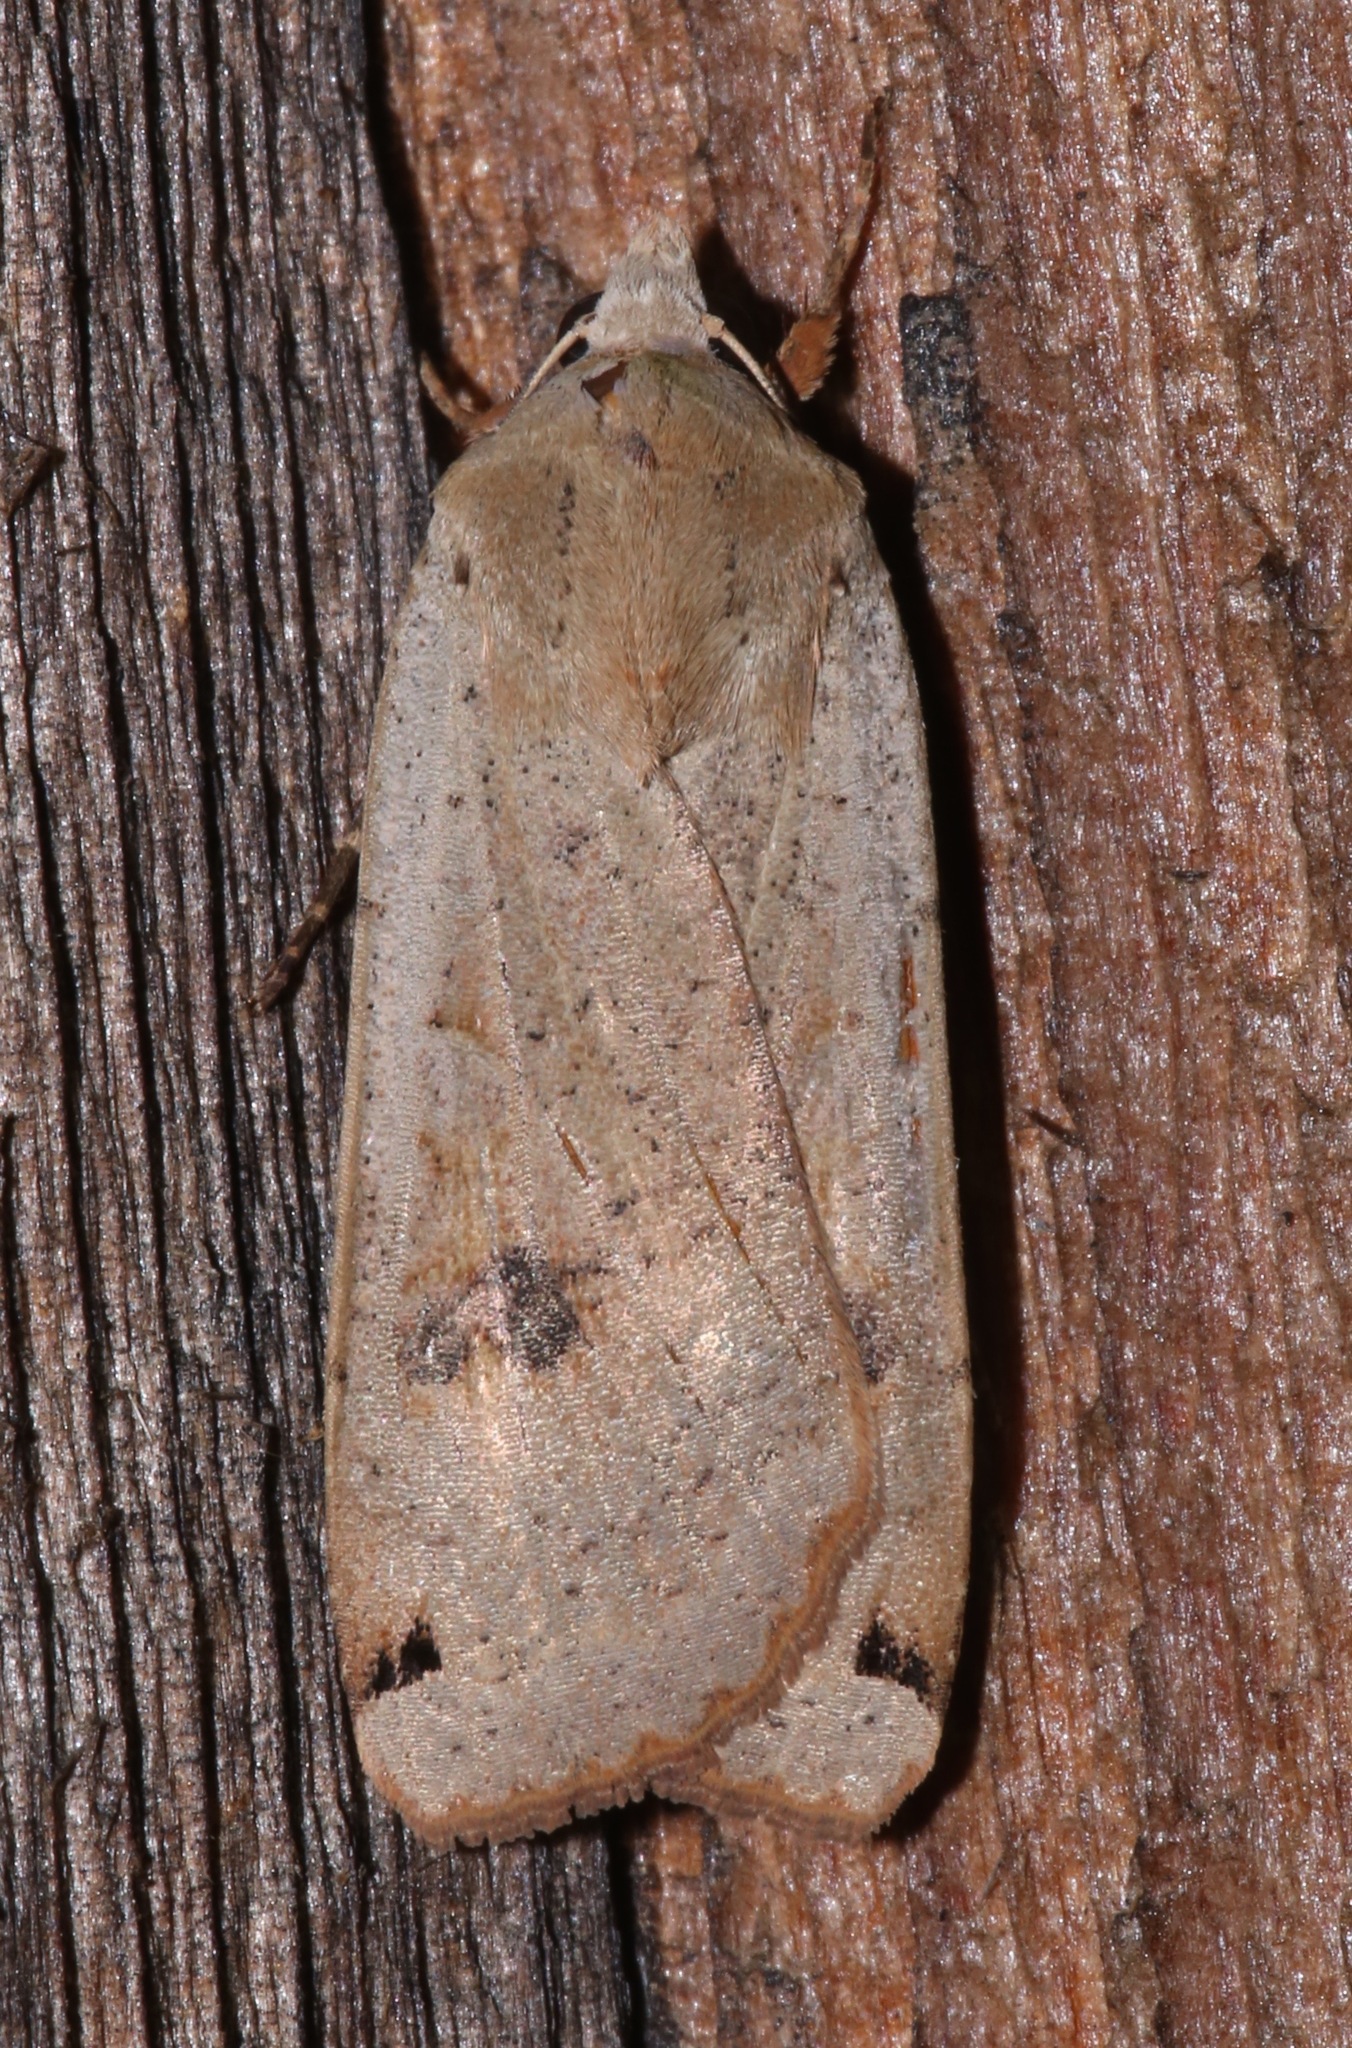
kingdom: Animalia
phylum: Arthropoda
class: Insecta
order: Lepidoptera
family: Noctuidae
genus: Noctua
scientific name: Noctua pronuba
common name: Large yellow underwing
